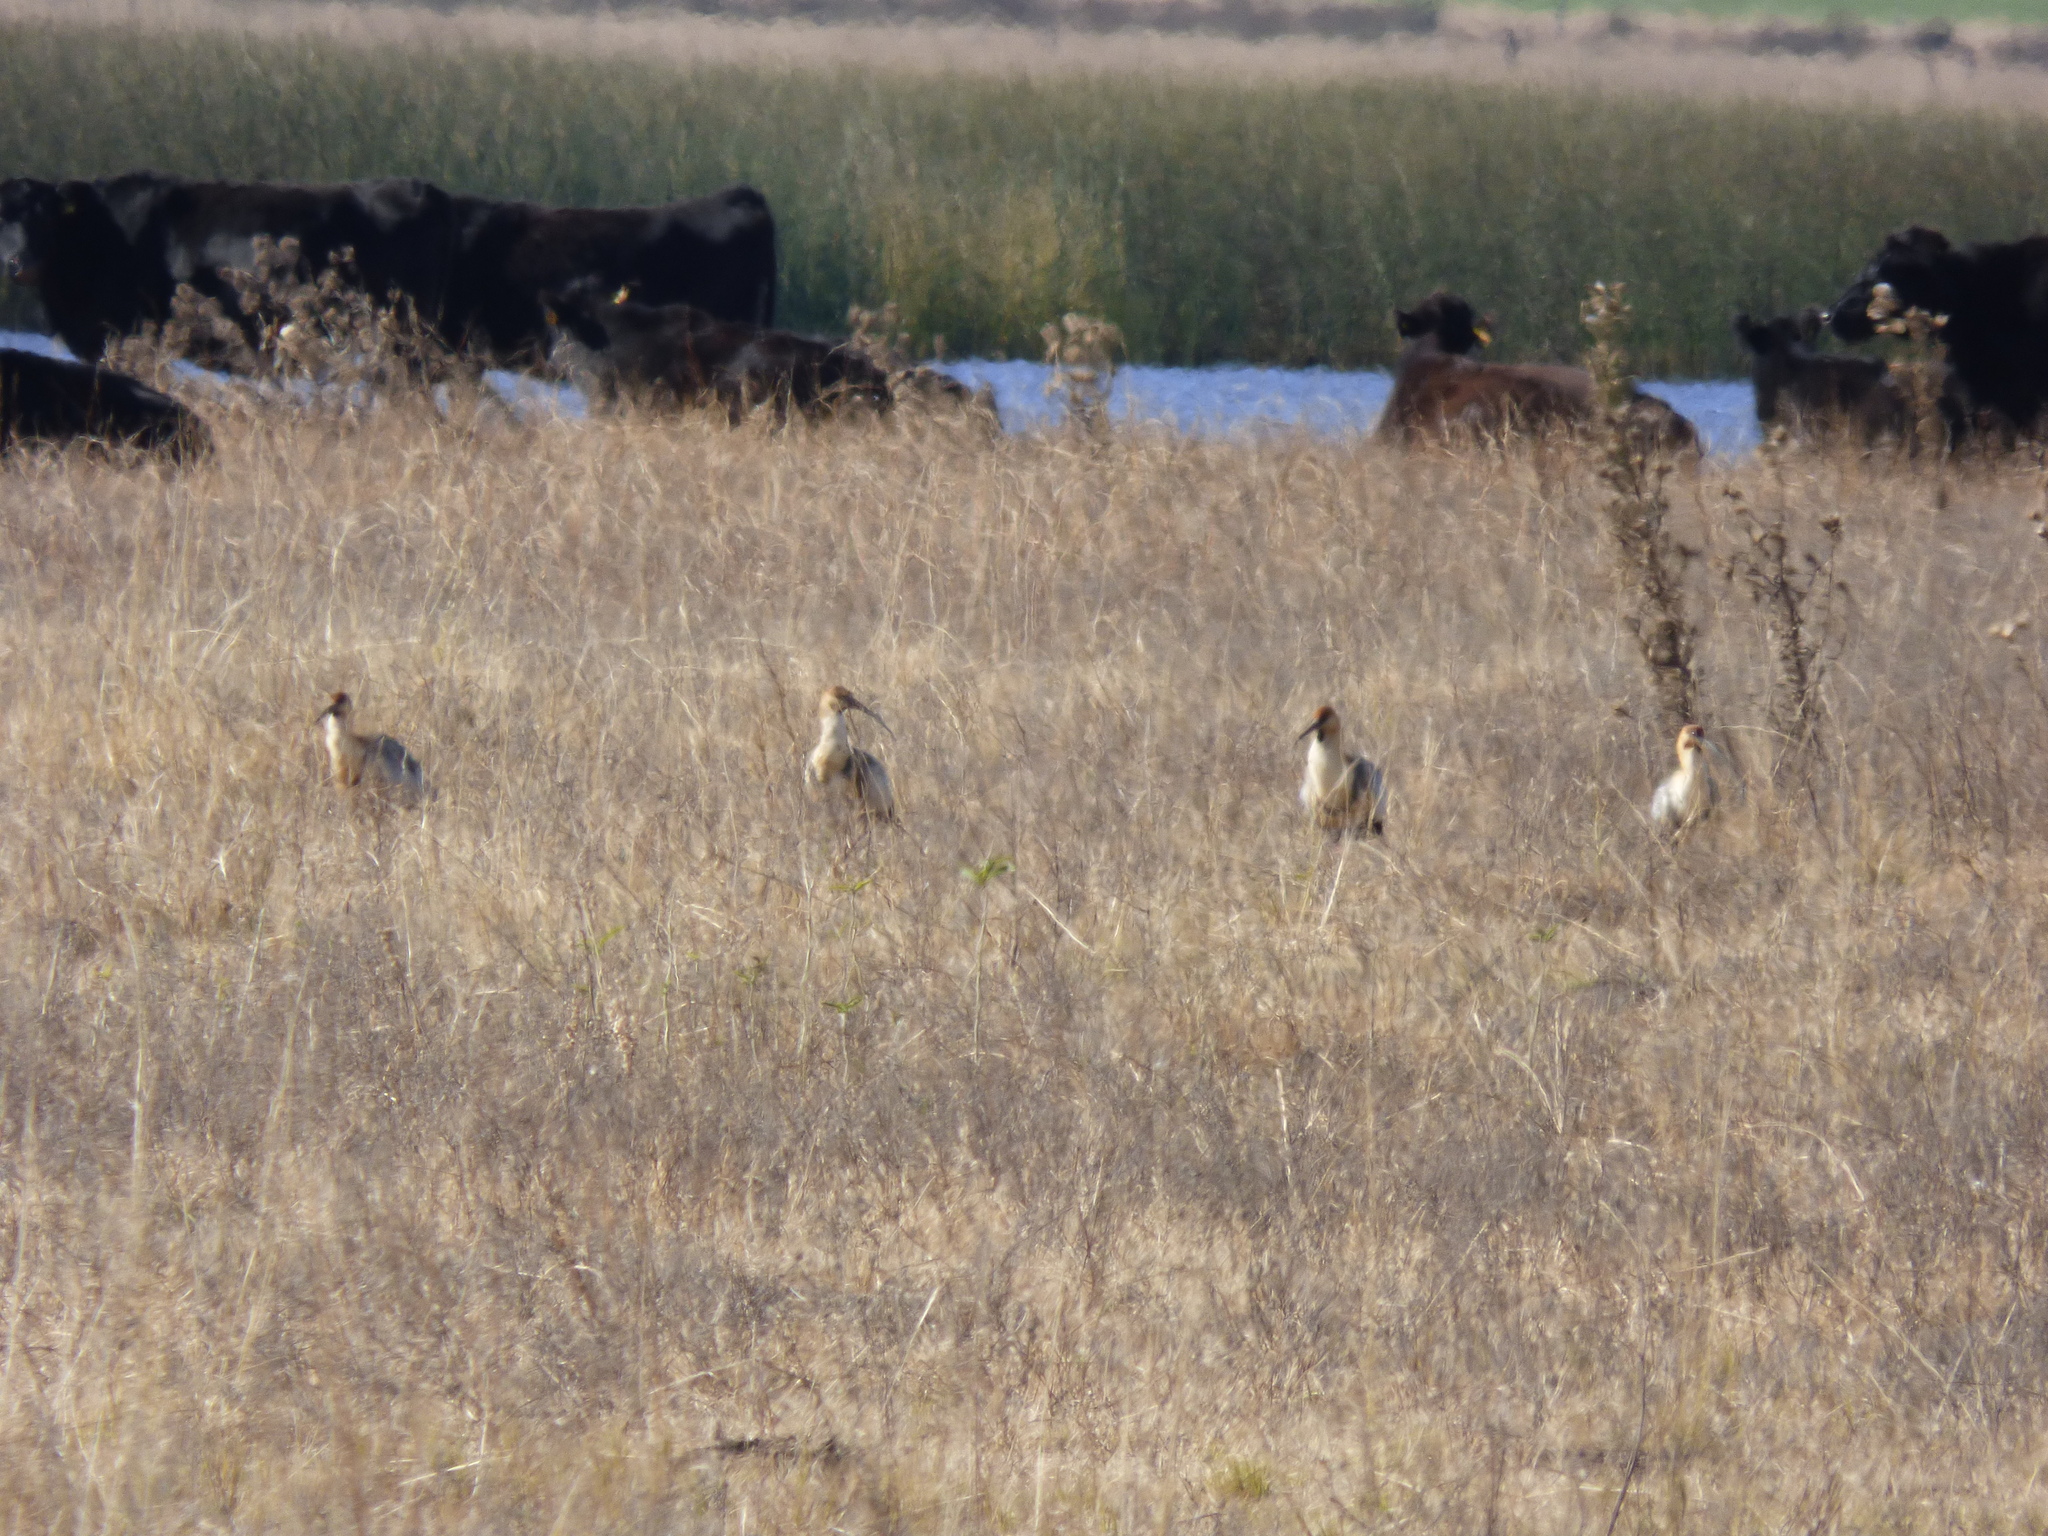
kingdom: Animalia
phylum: Chordata
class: Aves
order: Pelecaniformes
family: Threskiornithidae
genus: Theristicus
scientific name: Theristicus melanopis
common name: Black-faced ibis
